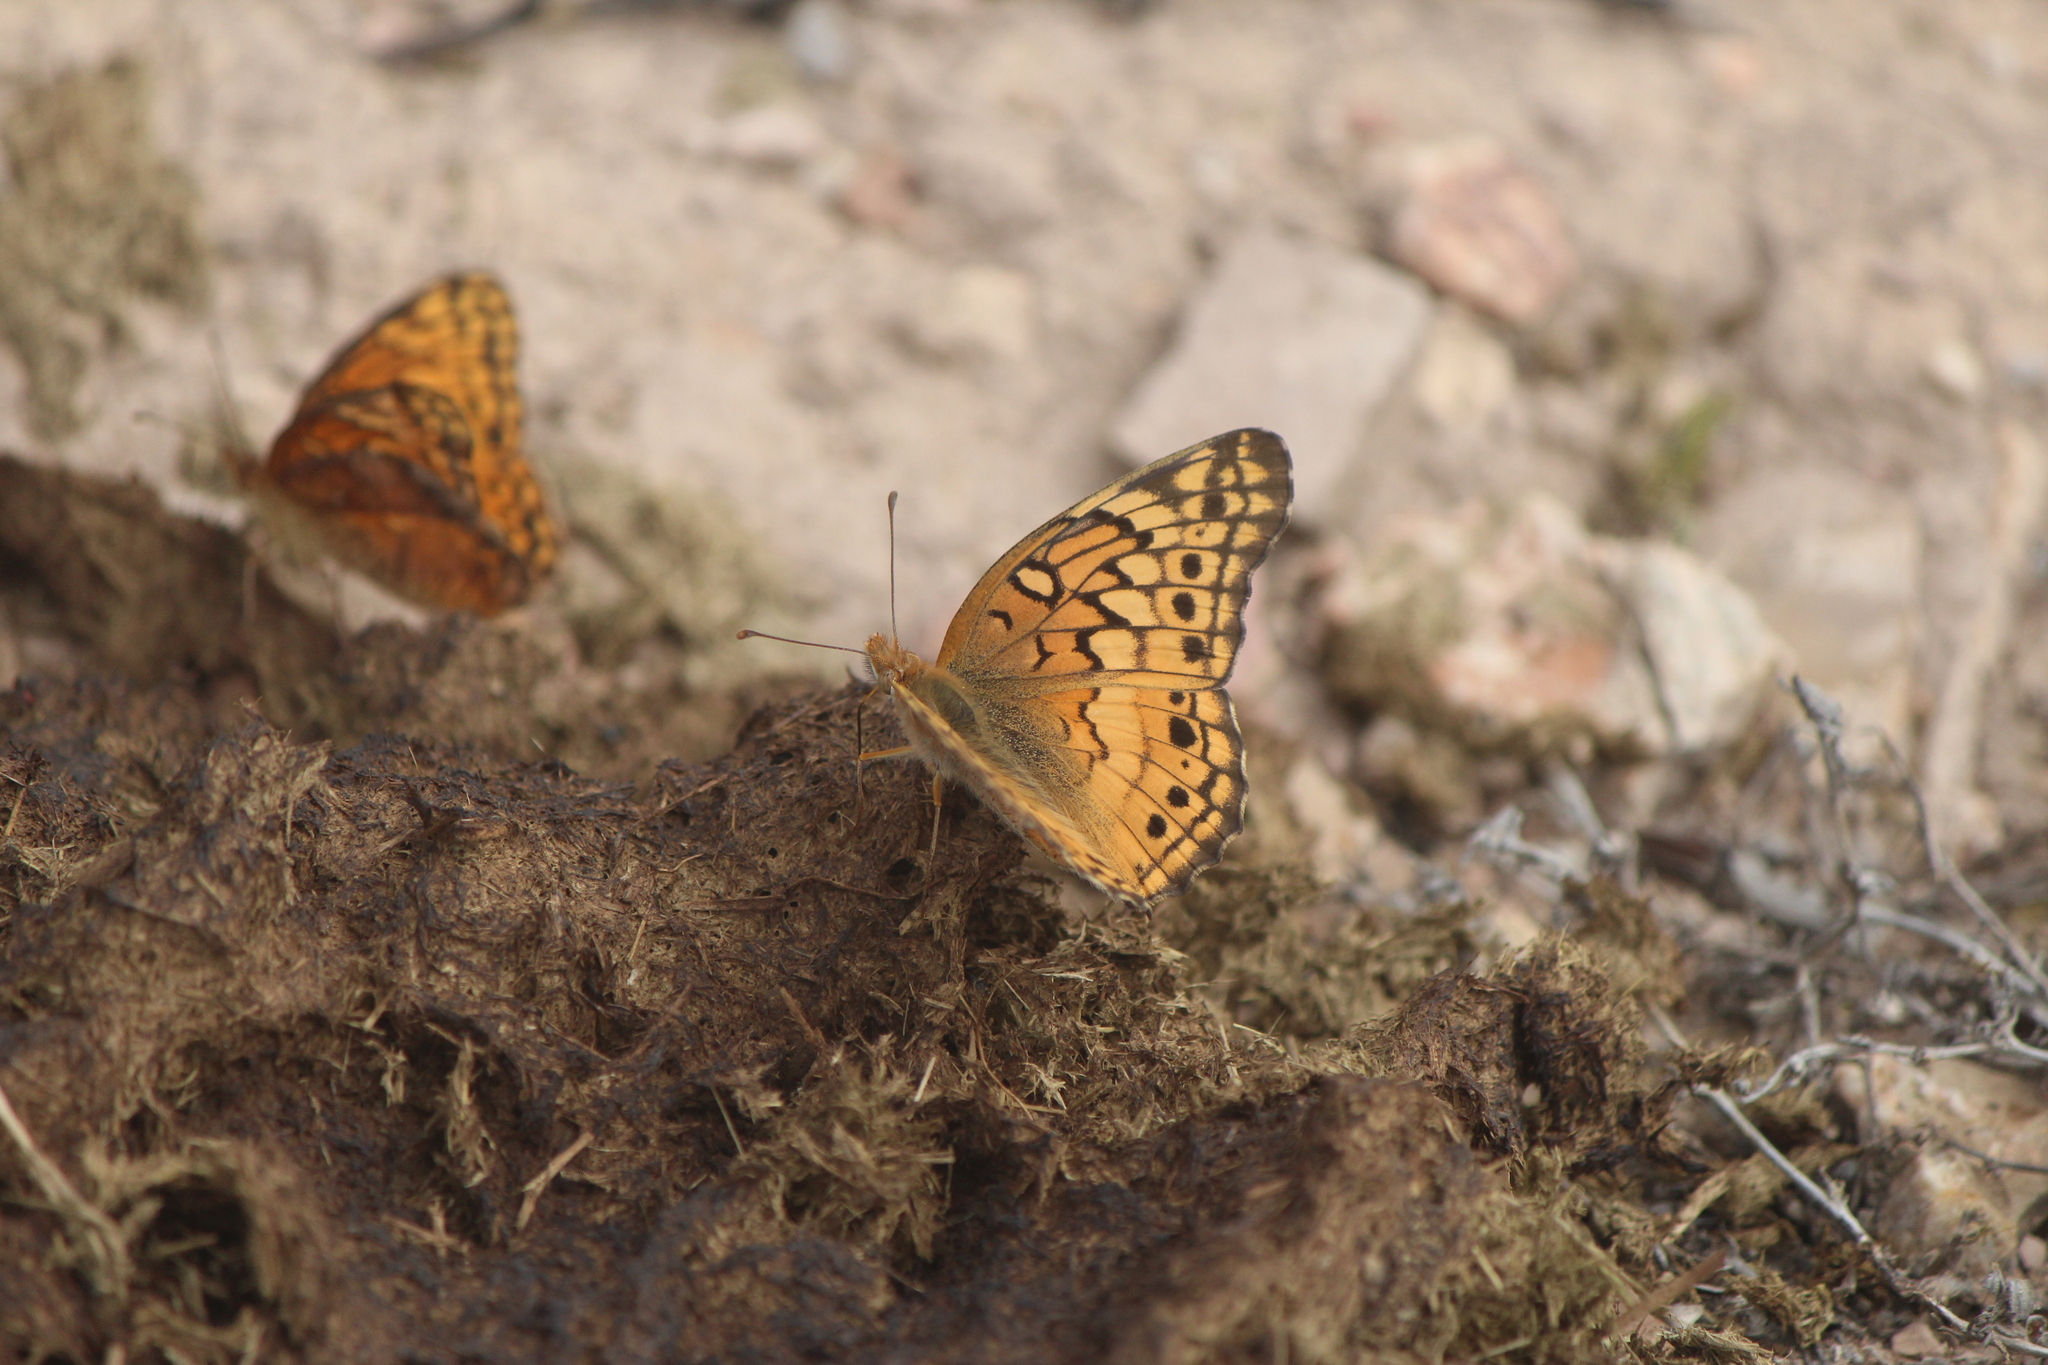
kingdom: Animalia
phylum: Arthropoda
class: Insecta
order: Lepidoptera
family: Nymphalidae
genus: Euptoieta
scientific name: Euptoieta claudia
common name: Variegated fritillary
